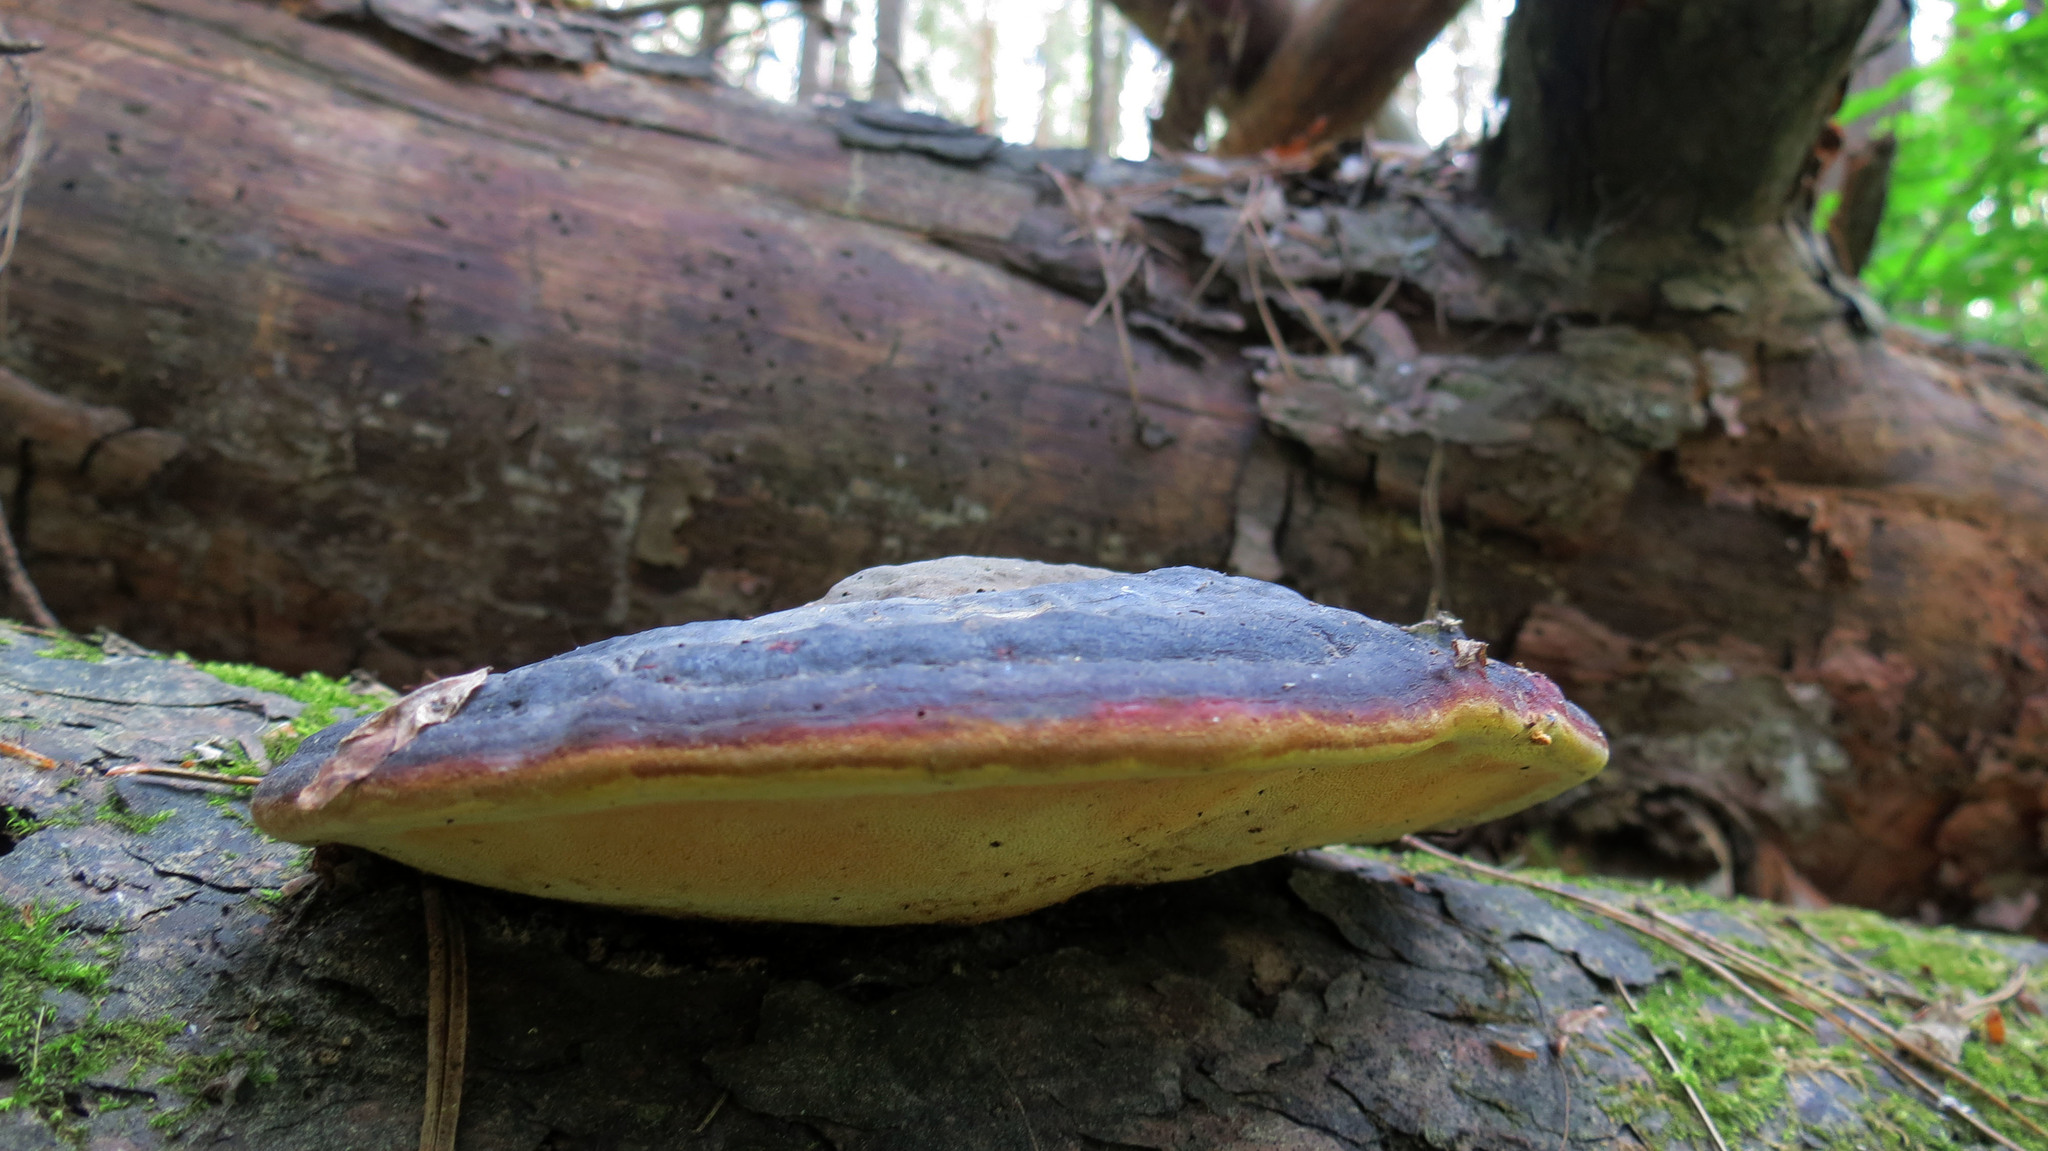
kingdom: Fungi
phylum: Basidiomycota
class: Agaricomycetes
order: Polyporales
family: Fomitopsidaceae
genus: Fomitopsis
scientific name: Fomitopsis pinicola
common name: Red-belted bracket
